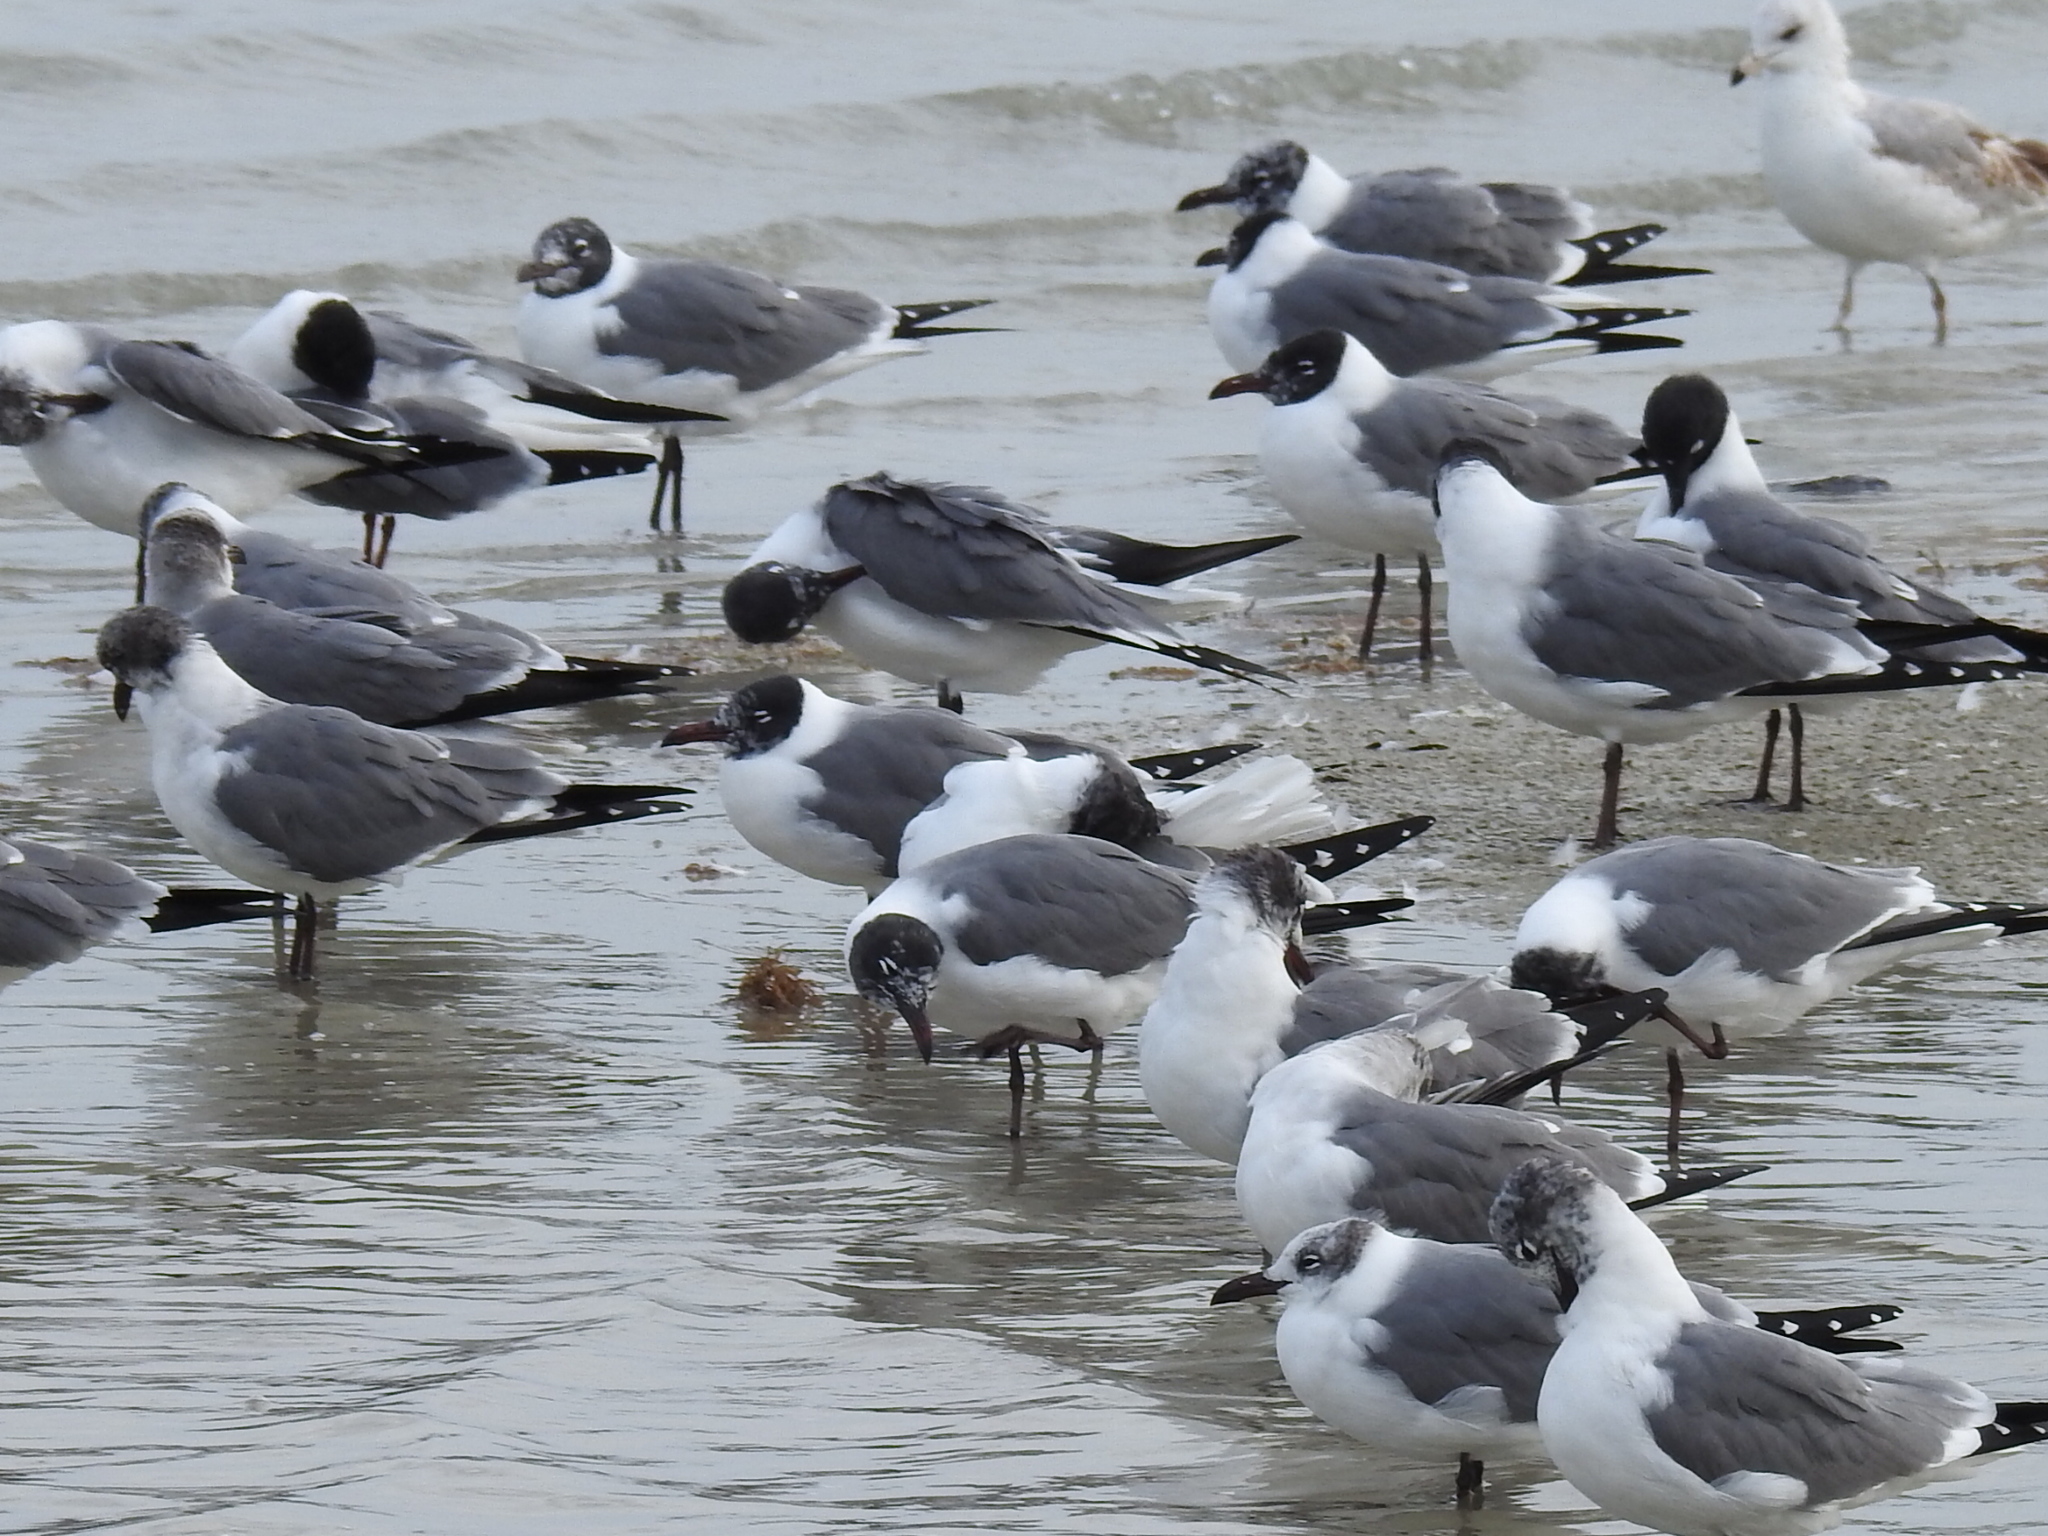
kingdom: Animalia
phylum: Chordata
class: Aves
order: Charadriiformes
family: Laridae
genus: Leucophaeus
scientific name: Leucophaeus atricilla
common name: Laughing gull
